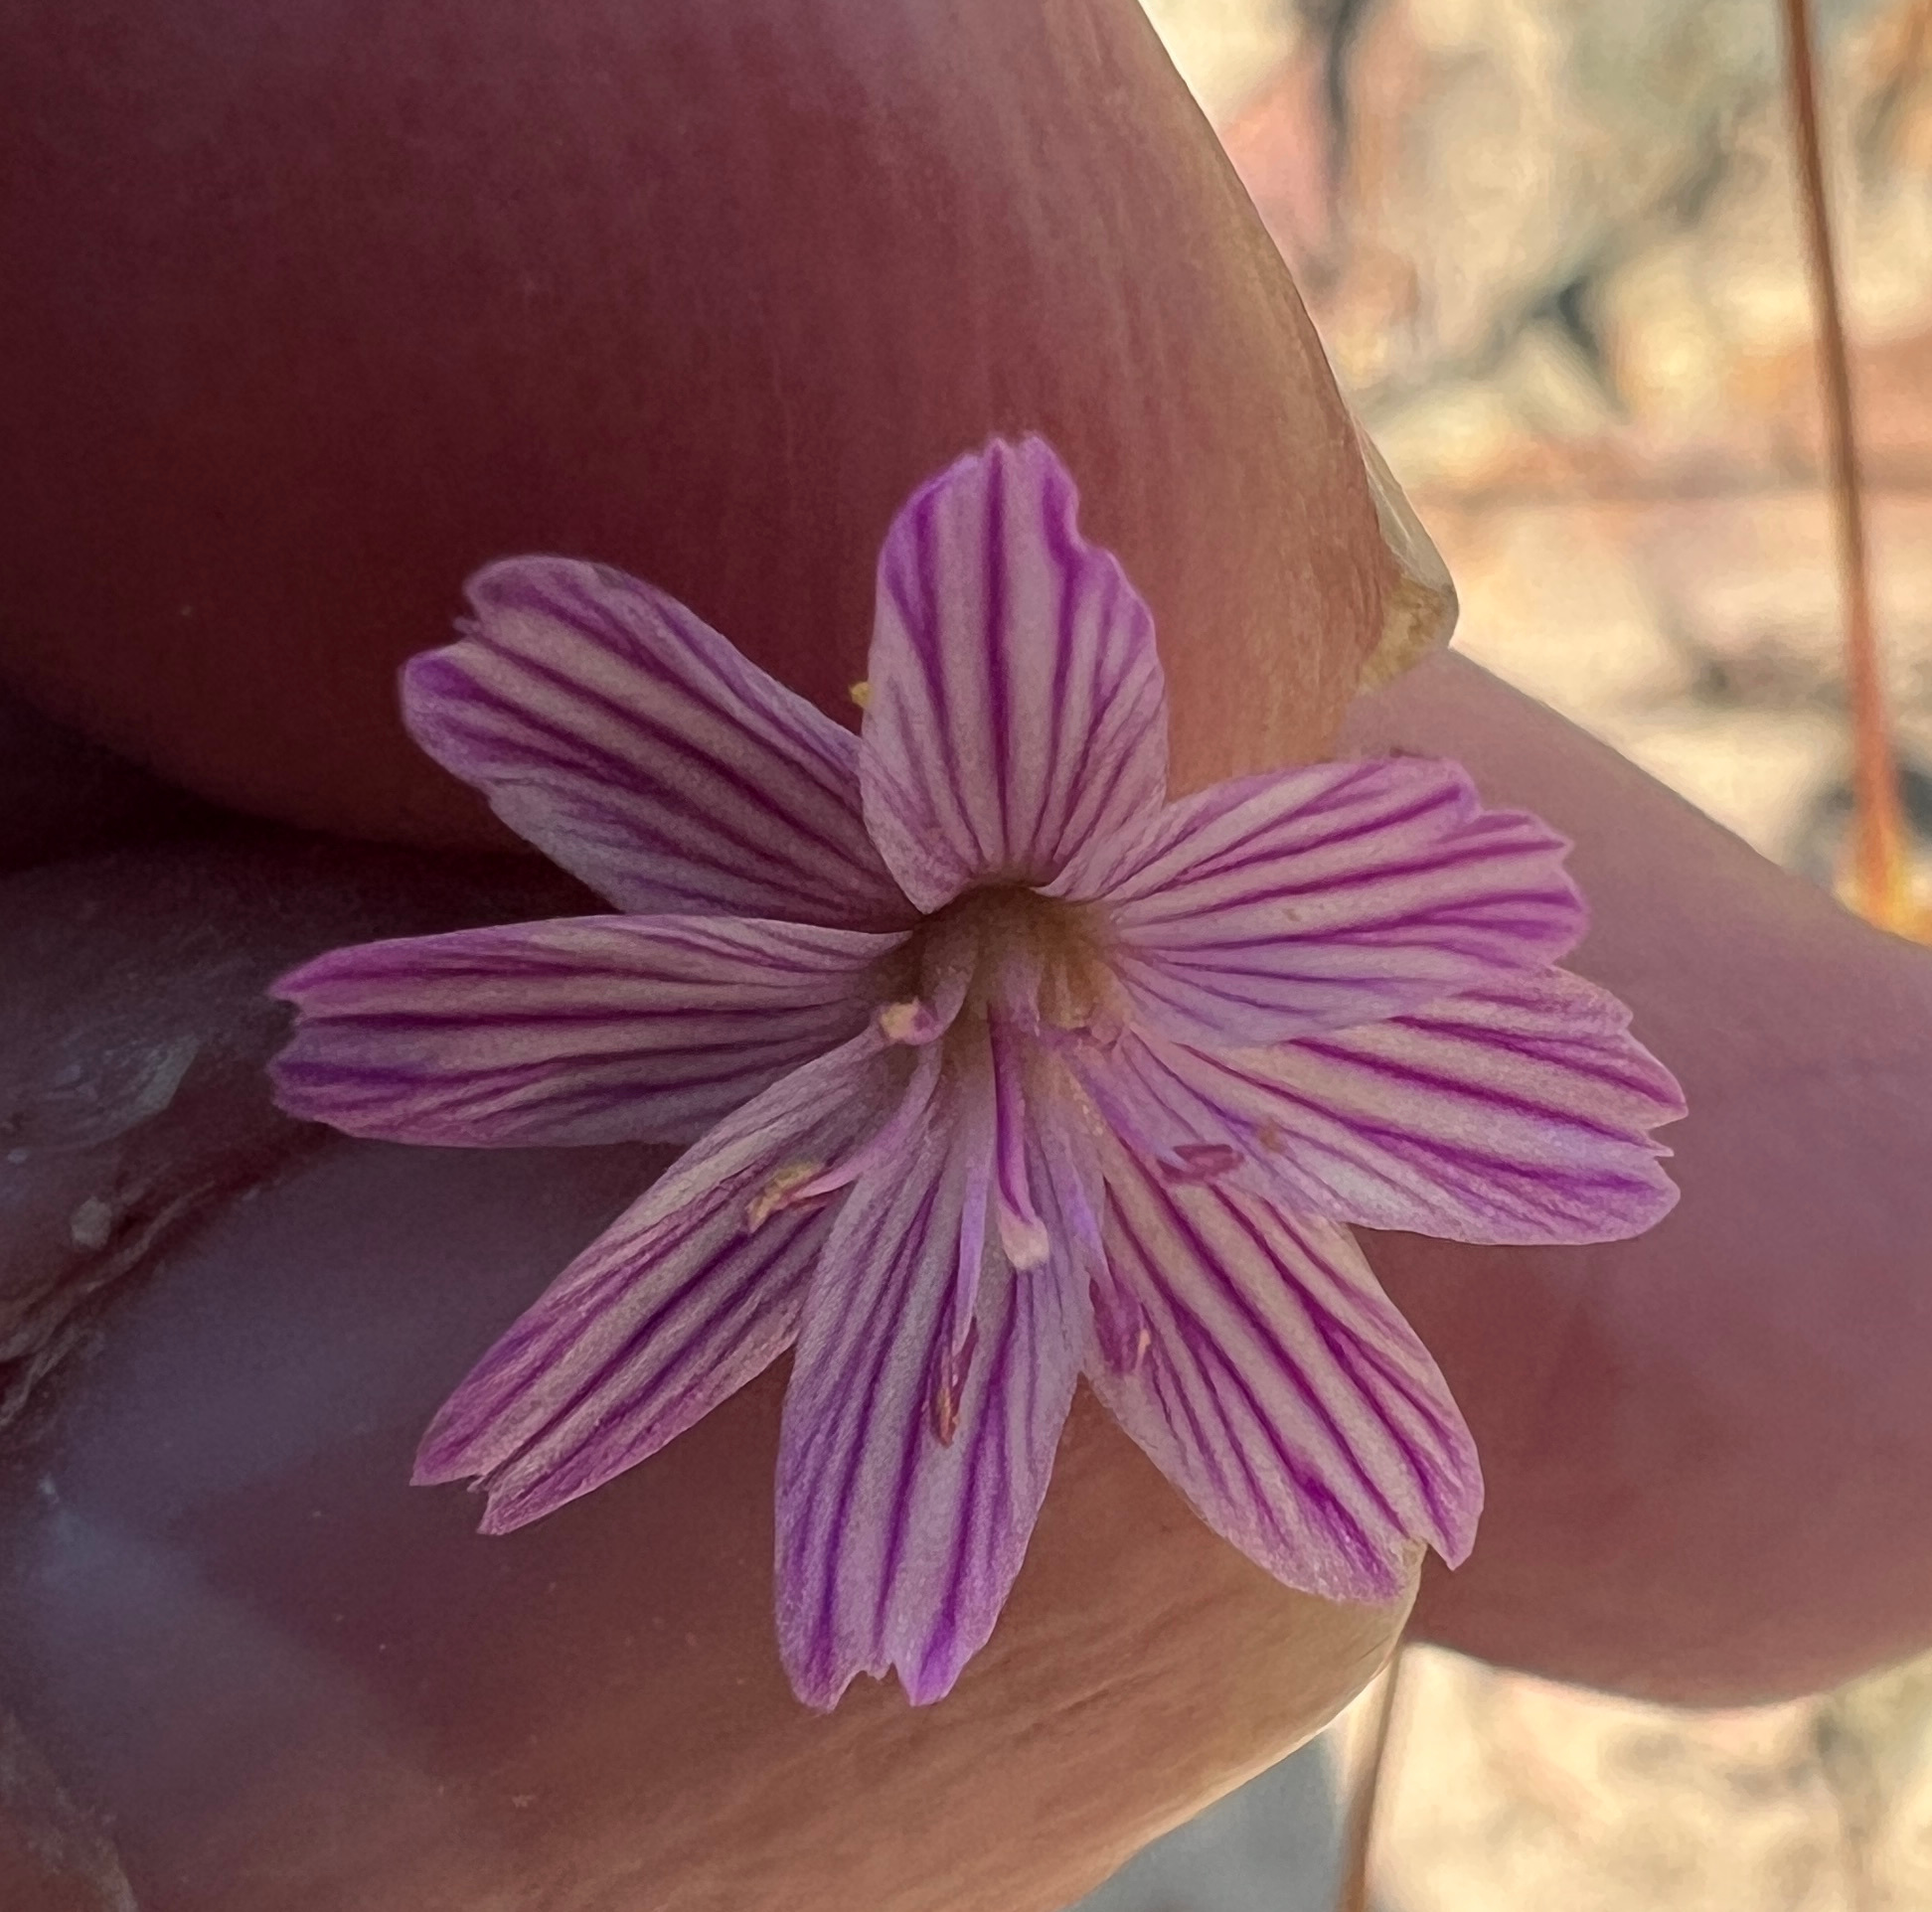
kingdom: Plantae
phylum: Tracheophyta
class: Magnoliopsida
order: Caryophyllales
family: Montiaceae
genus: Lewisia
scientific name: Lewisia columbiana
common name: Columbia lewisia
